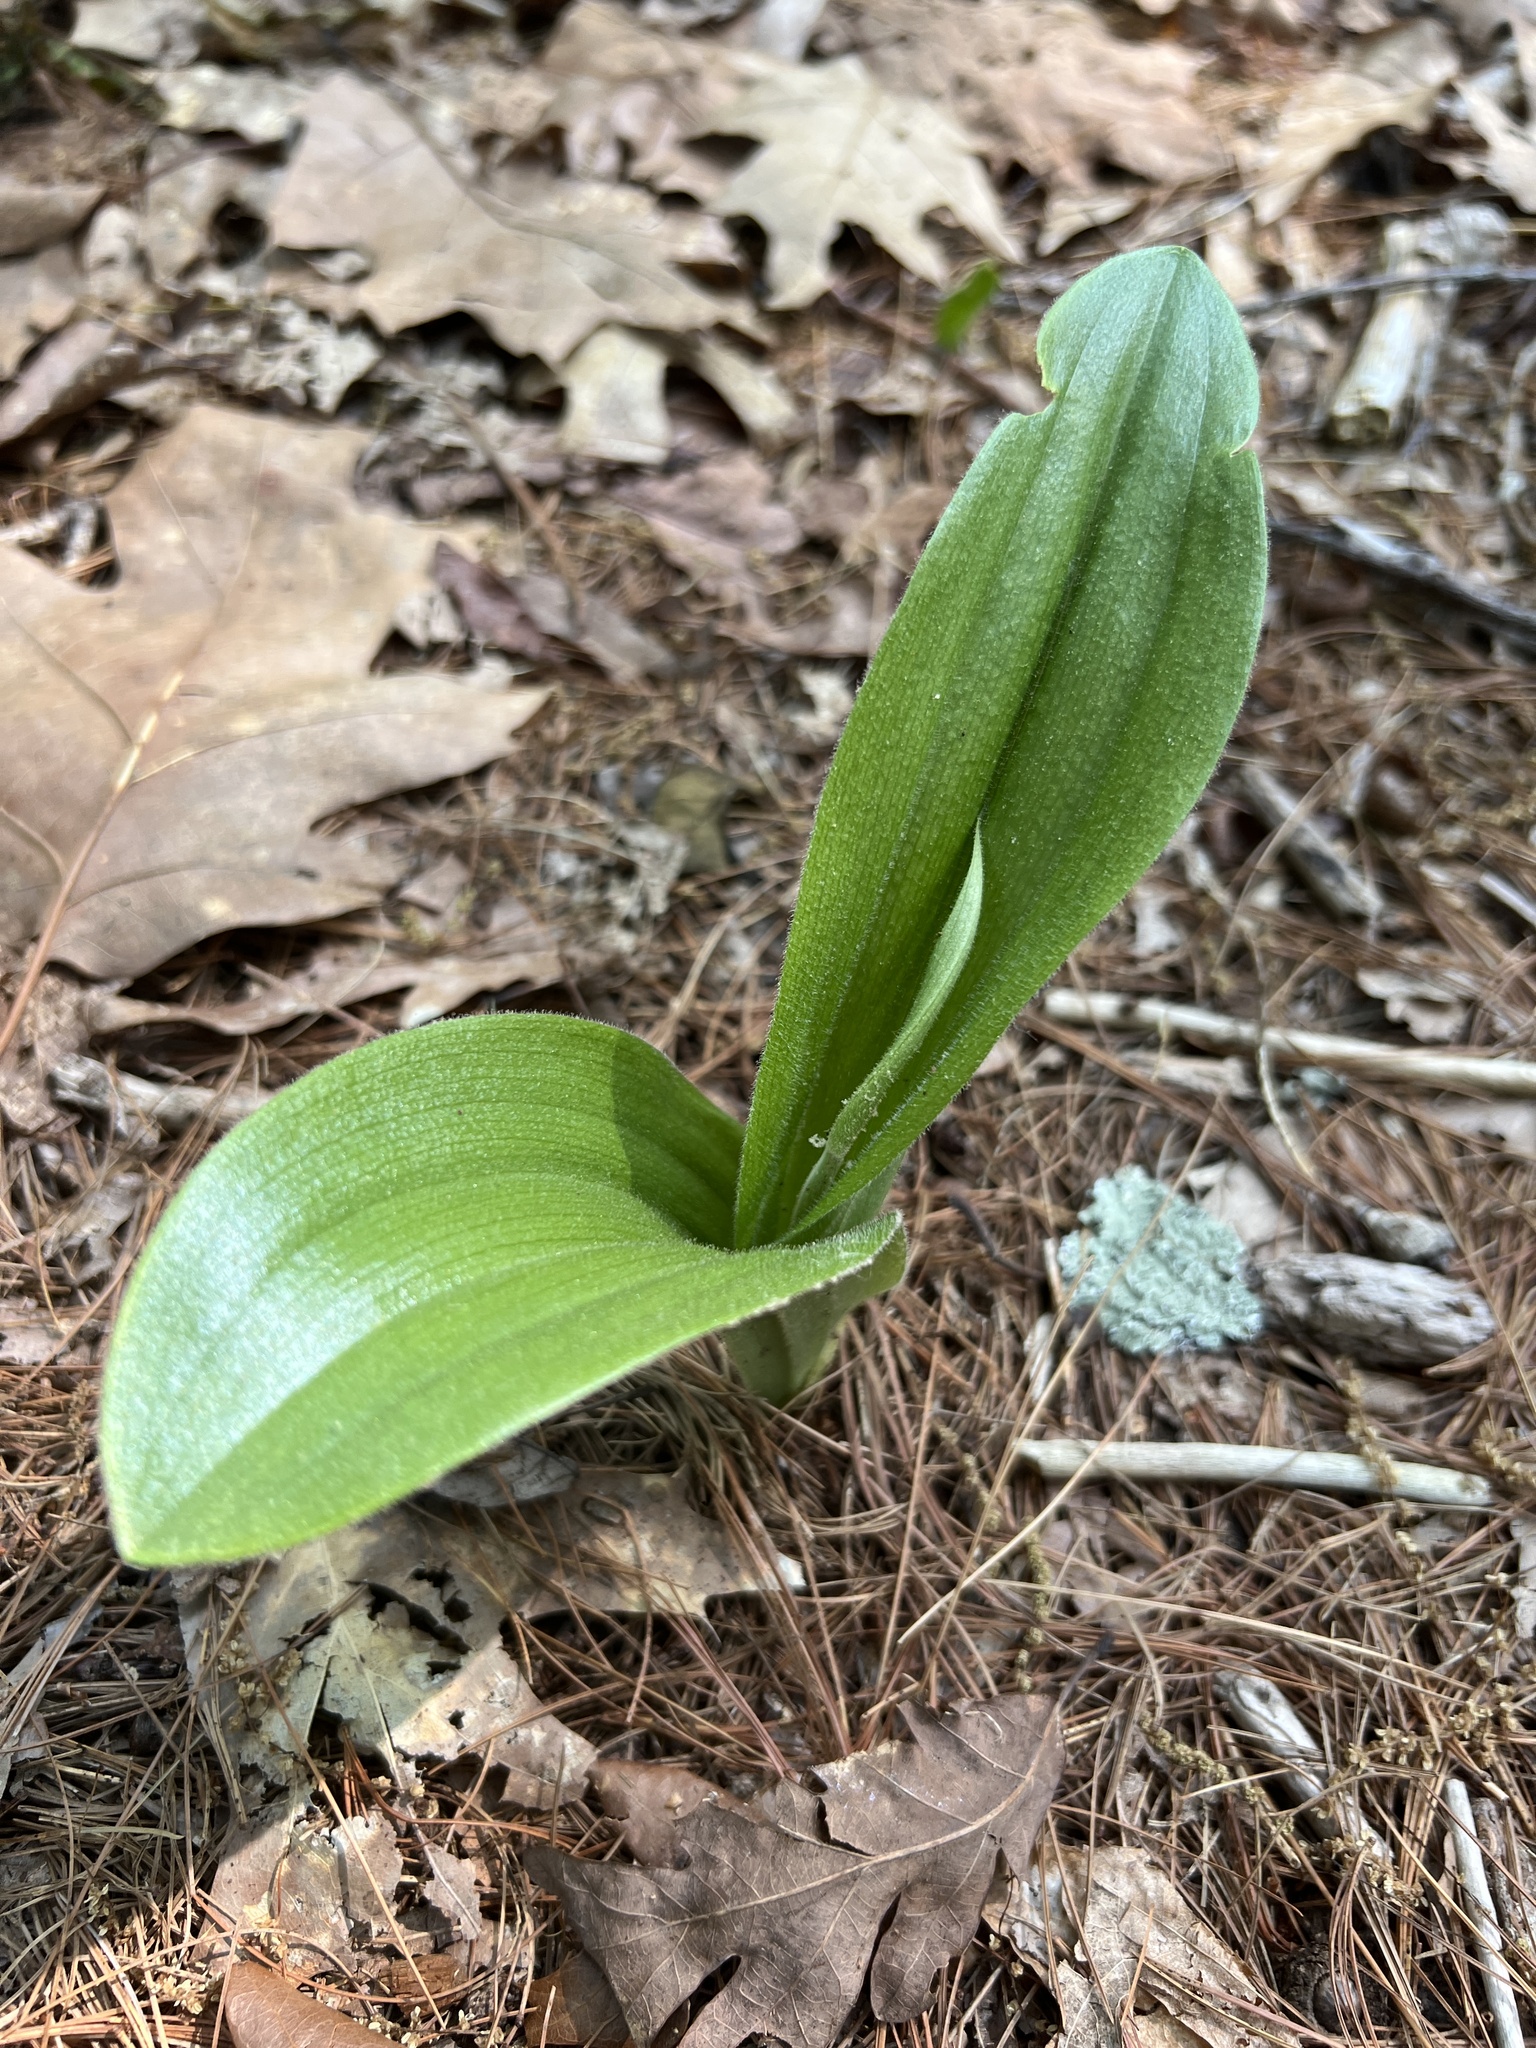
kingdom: Plantae
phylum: Tracheophyta
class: Liliopsida
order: Asparagales
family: Orchidaceae
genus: Cypripedium
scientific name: Cypripedium acaule
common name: Pink lady's-slipper
